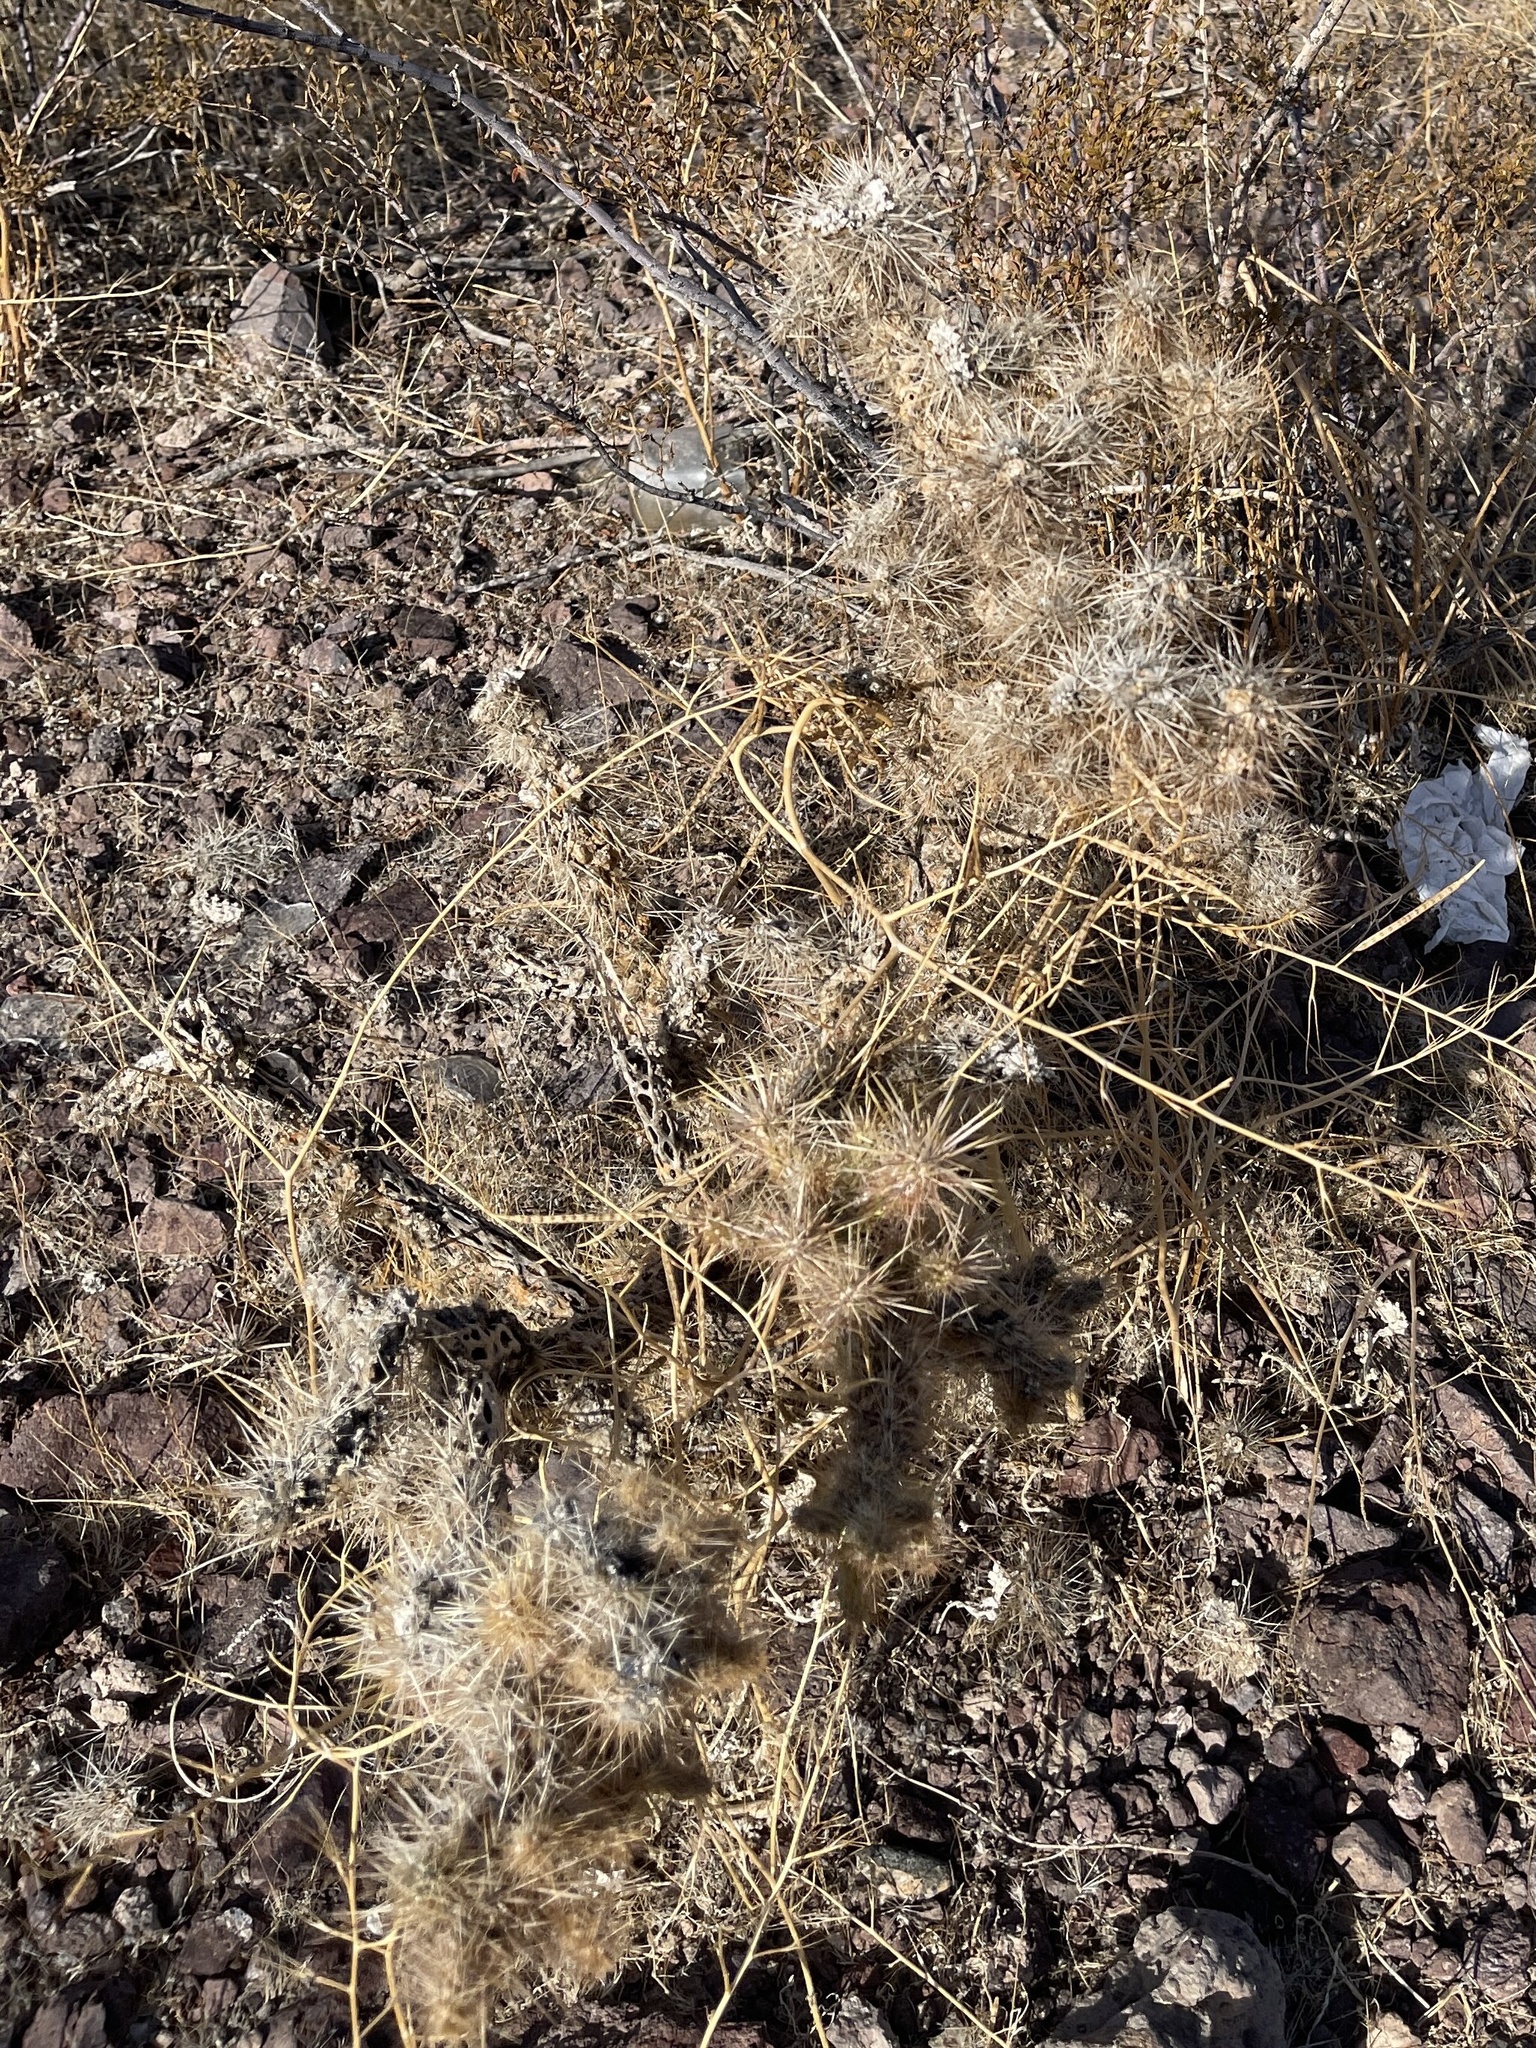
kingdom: Plantae
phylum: Tracheophyta
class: Magnoliopsida
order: Caryophyllales
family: Cactaceae
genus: Cylindropuntia
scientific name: Cylindropuntia echinocarpa
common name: Ground cholla
